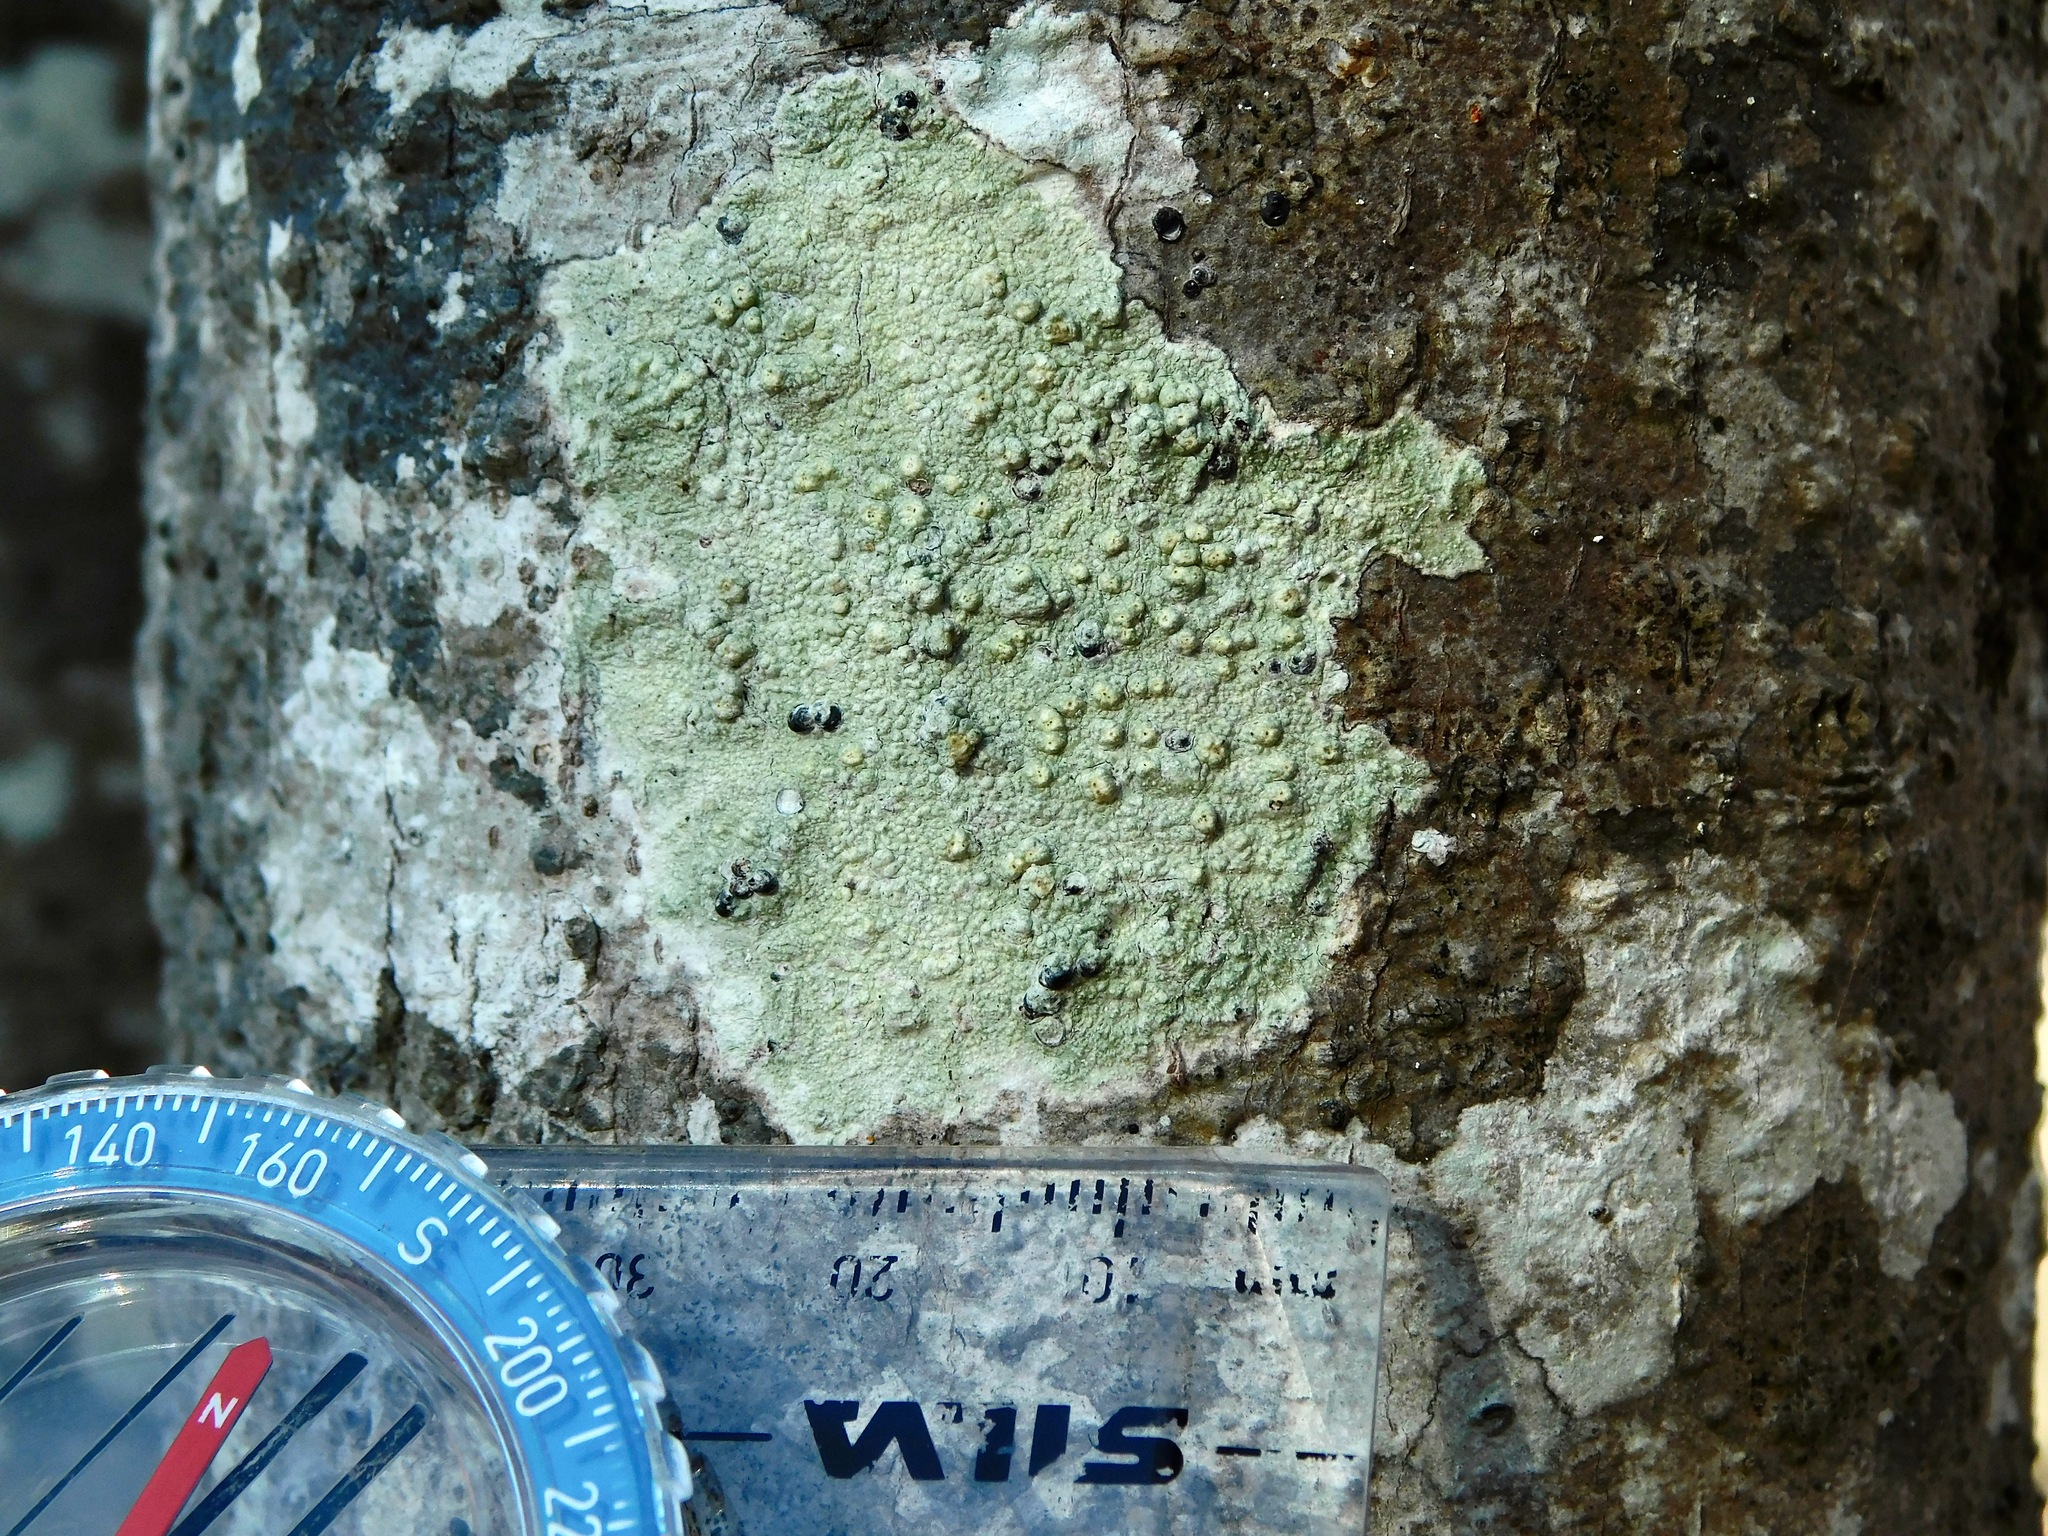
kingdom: Fungi
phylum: Ascomycota
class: Lecanoromycetes
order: Pertusariales
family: Pertusariaceae
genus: Pertusaria
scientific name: Pertusaria texana
